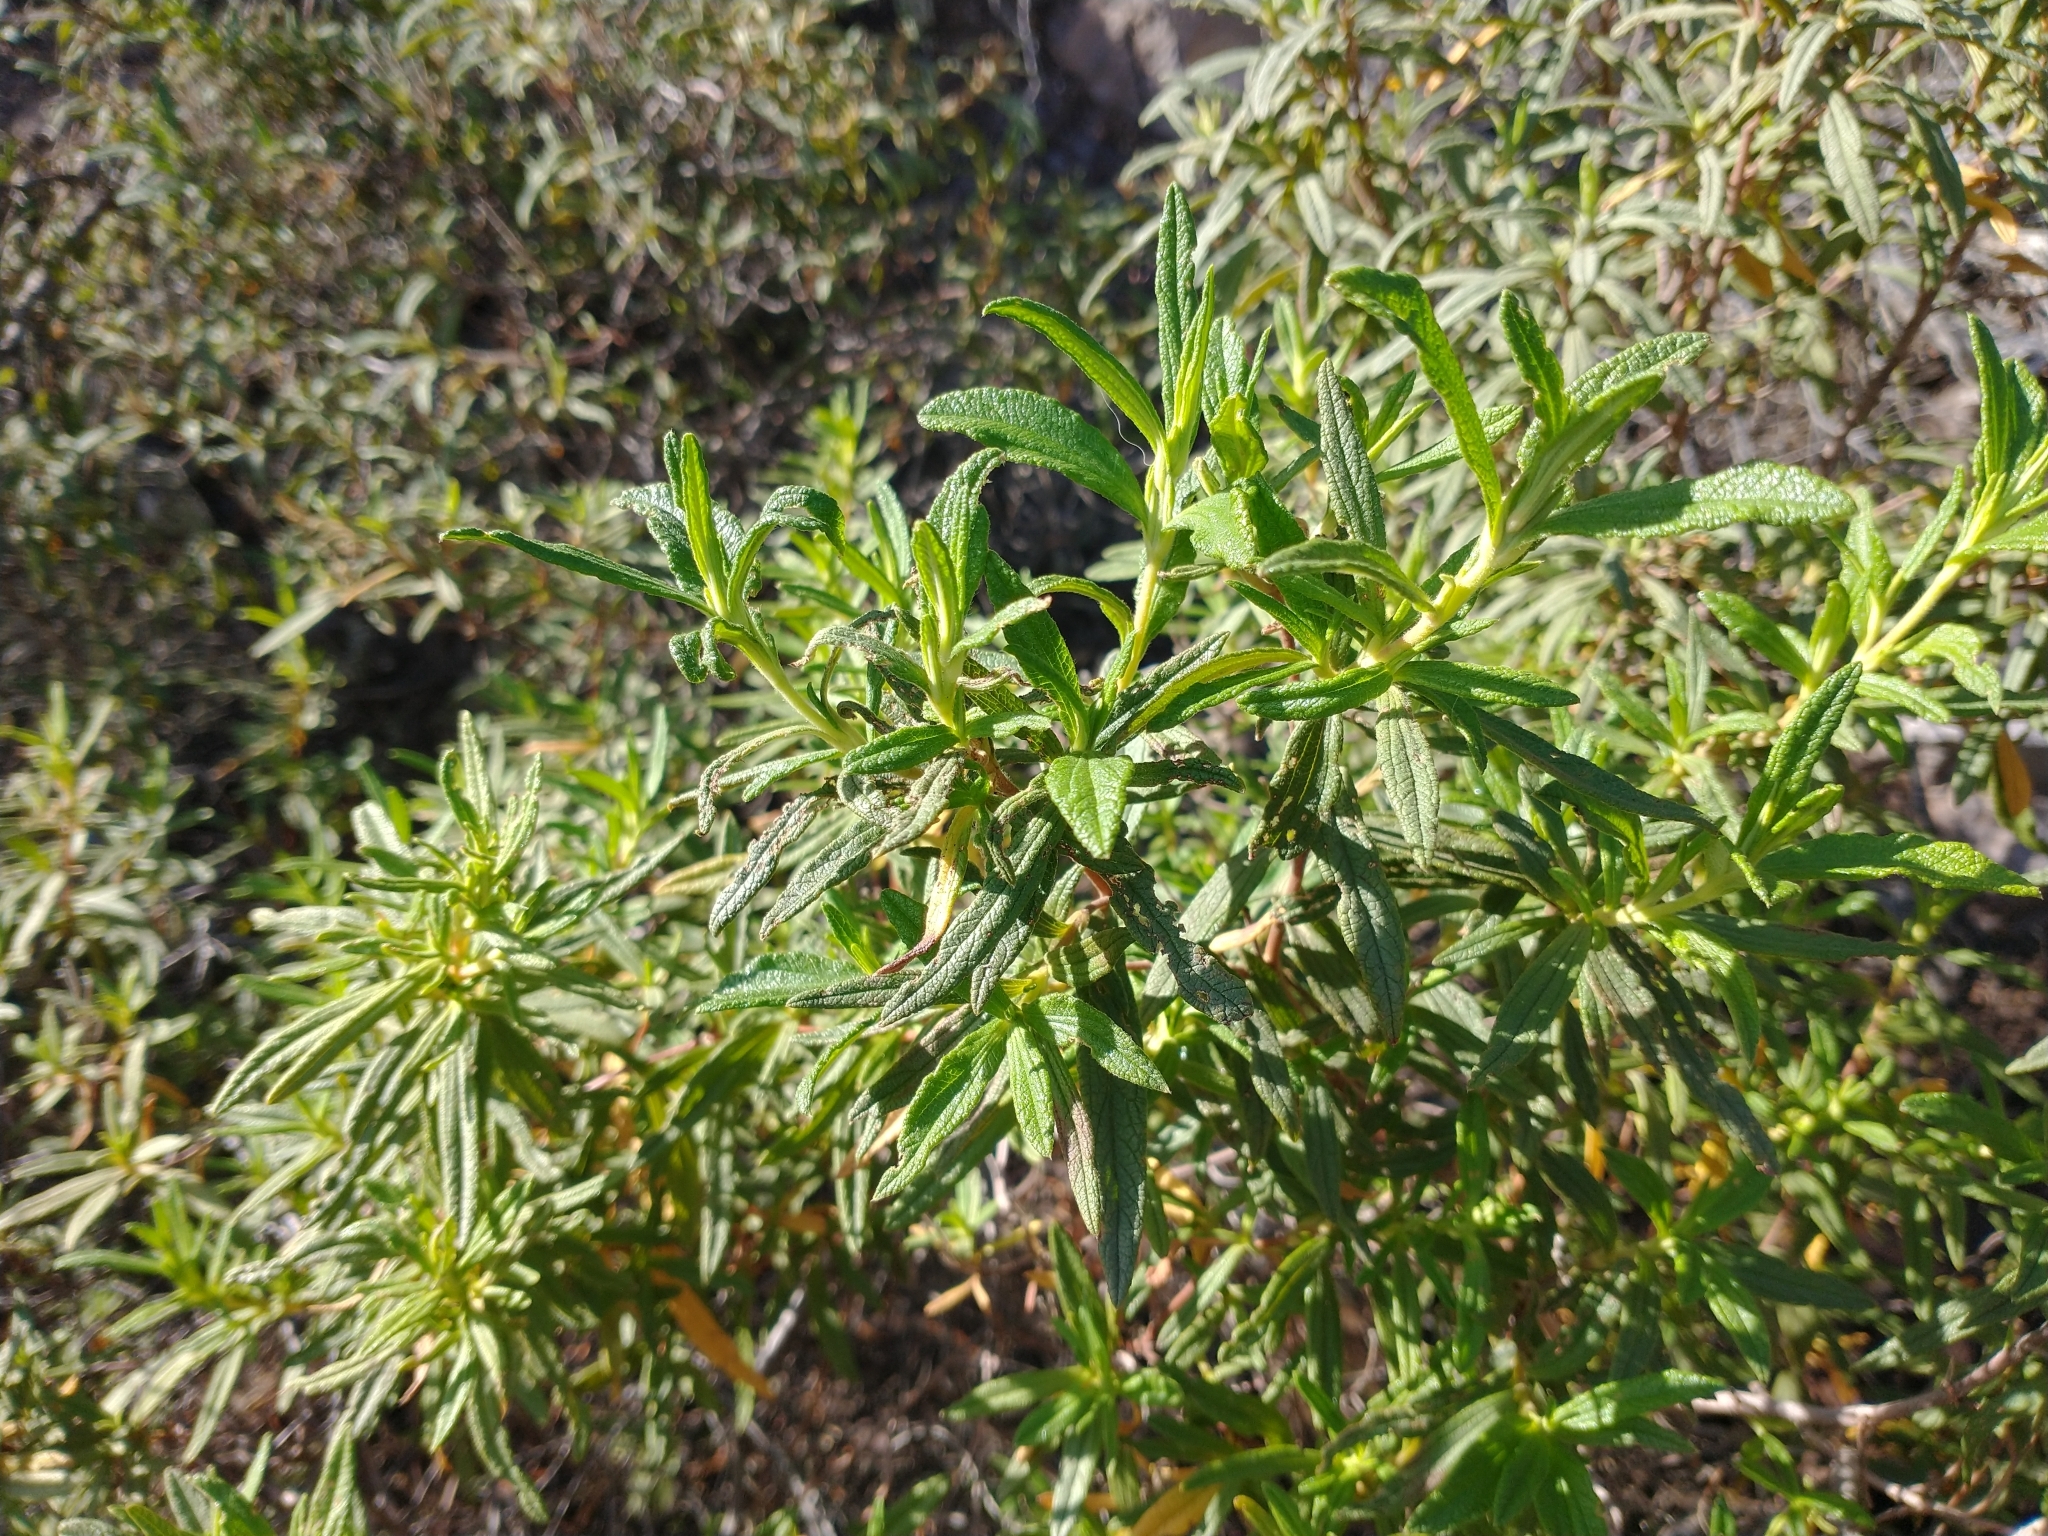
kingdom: Plantae
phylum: Tracheophyta
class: Magnoliopsida
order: Malvales
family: Cistaceae
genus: Cistus
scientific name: Cistus monspeliensis
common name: Montpelier cistus
